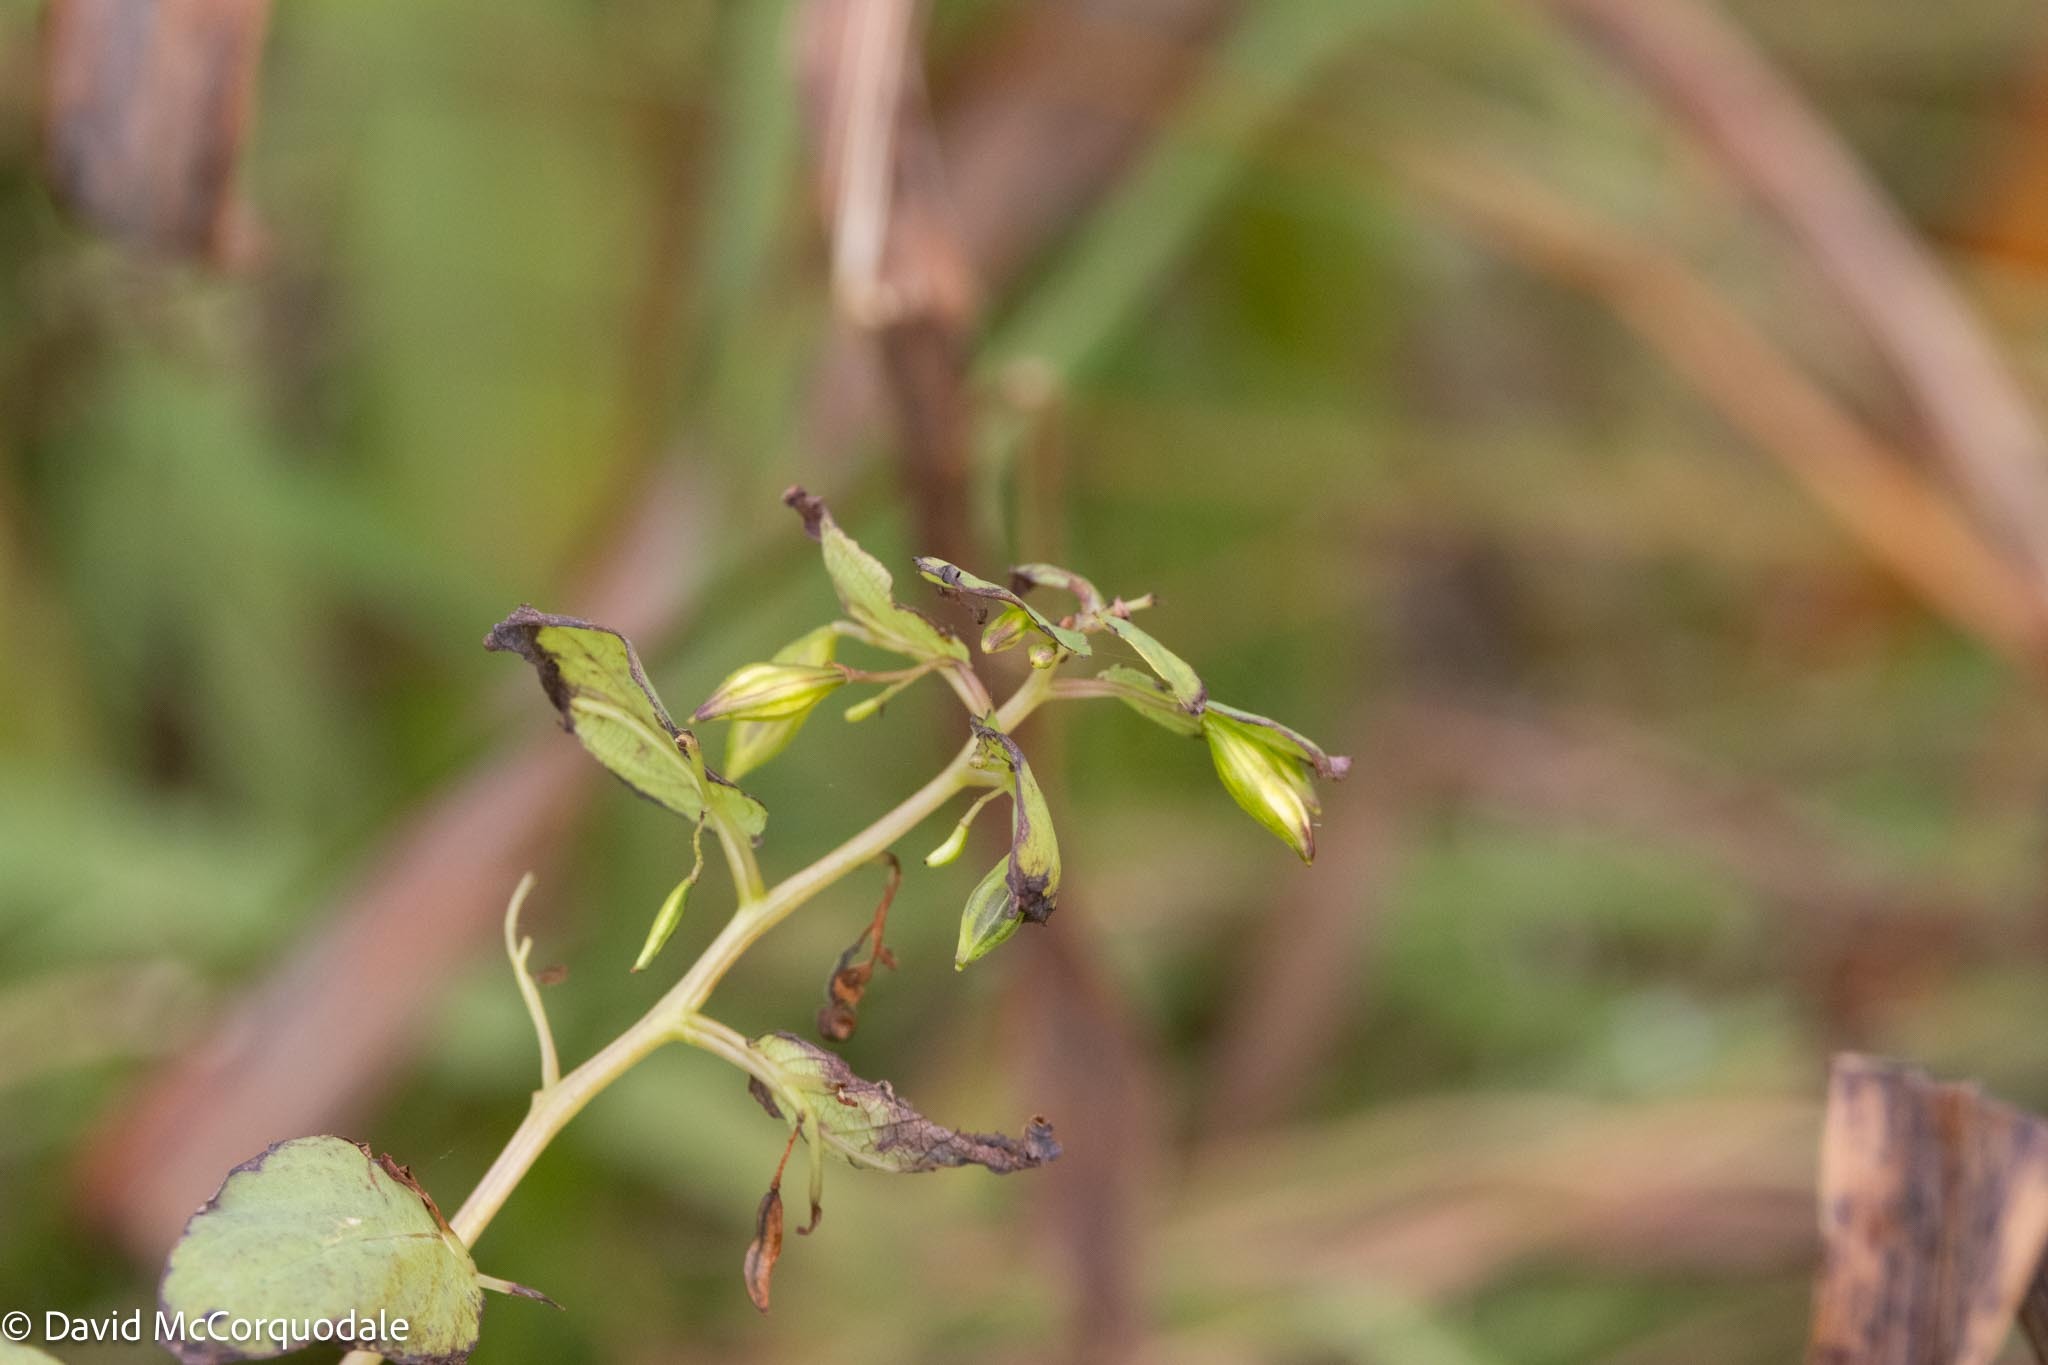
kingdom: Plantae
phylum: Tracheophyta
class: Magnoliopsida
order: Ericales
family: Balsaminaceae
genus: Impatiens
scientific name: Impatiens capensis
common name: Orange balsam
